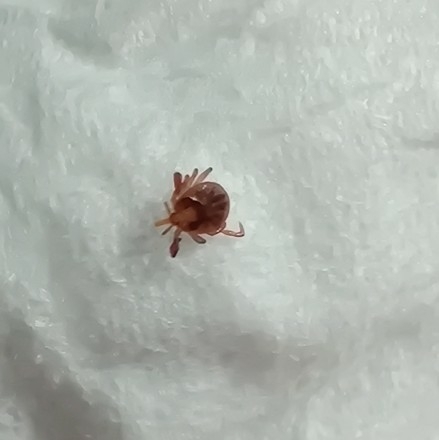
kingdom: Animalia
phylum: Arthropoda
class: Arachnida
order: Ixodida
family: Ixodidae
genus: Amblyomma
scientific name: Amblyomma americanum
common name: Lone star tick
